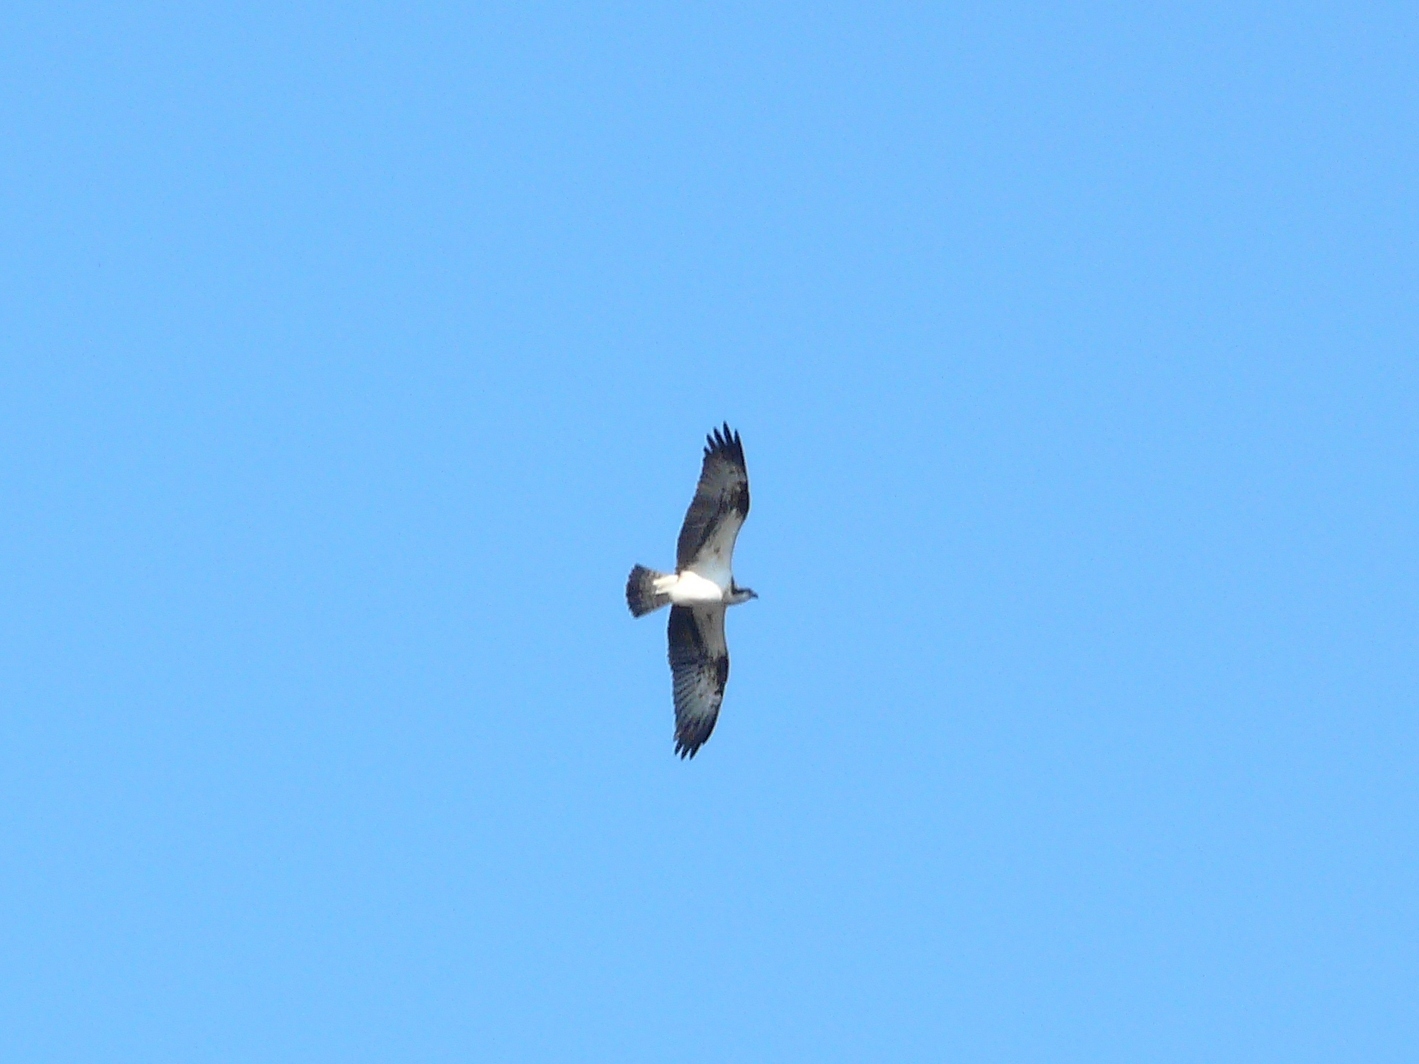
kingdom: Animalia
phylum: Chordata
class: Aves
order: Accipitriformes
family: Pandionidae
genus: Pandion
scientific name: Pandion haliaetus
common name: Osprey
